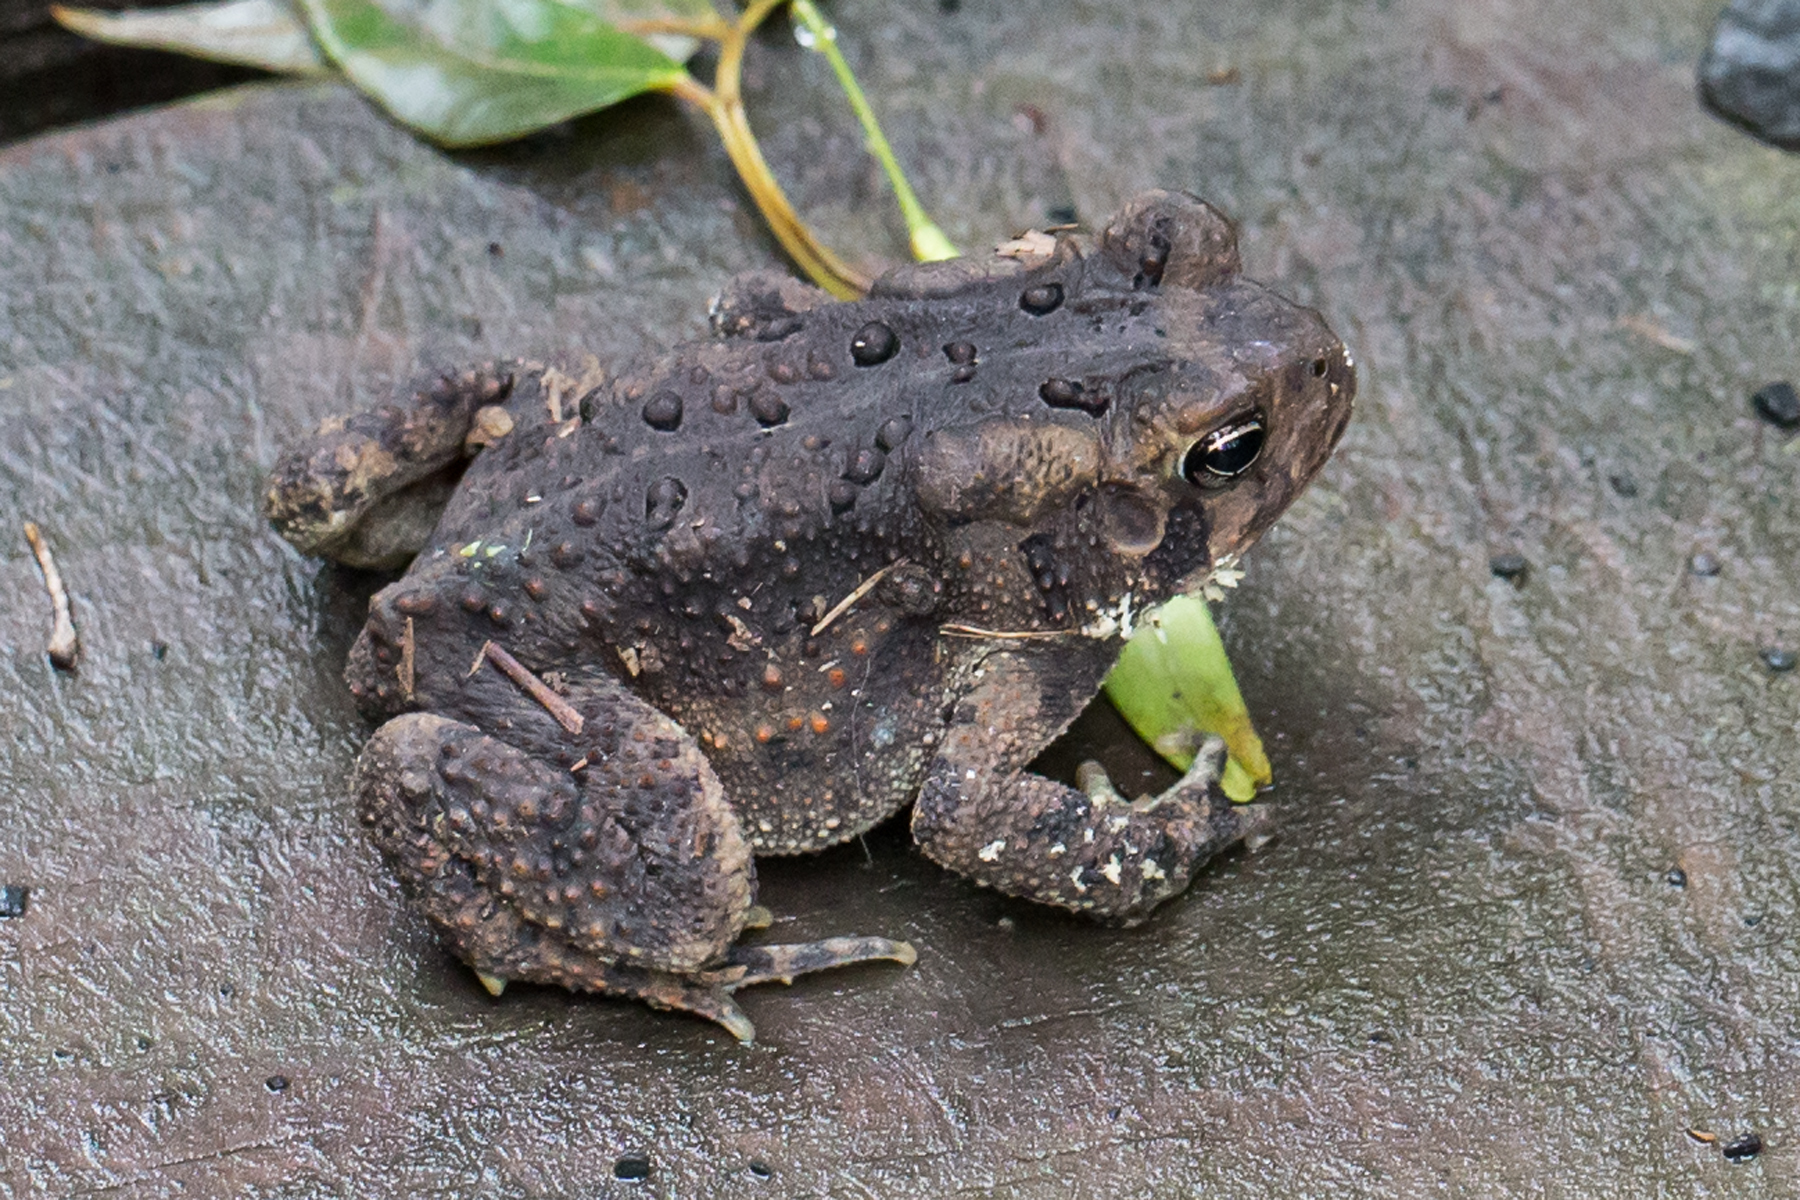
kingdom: Animalia
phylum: Chordata
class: Amphibia
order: Anura
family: Bufonidae
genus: Anaxyrus
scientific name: Anaxyrus americanus
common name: American toad
